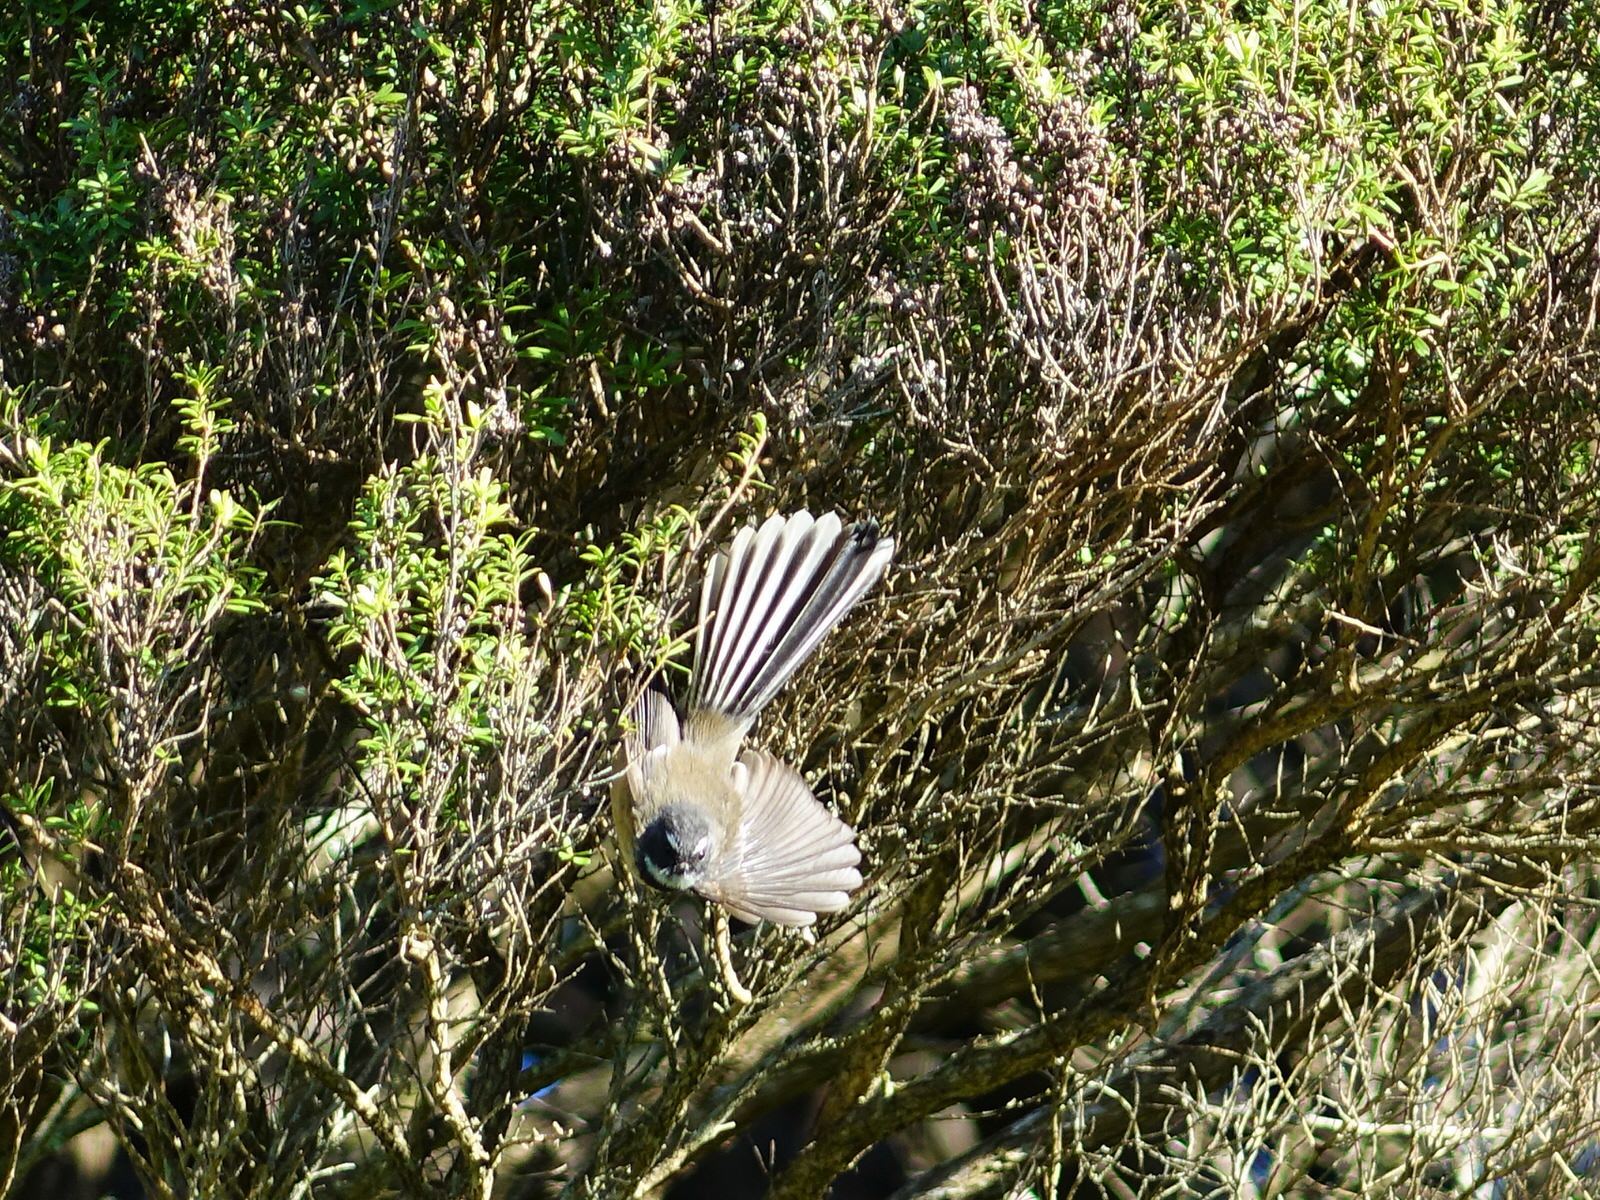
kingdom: Animalia
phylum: Chordata
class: Aves
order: Passeriformes
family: Rhipiduridae
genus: Rhipidura
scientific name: Rhipidura fuliginosa
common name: New zealand fantail
